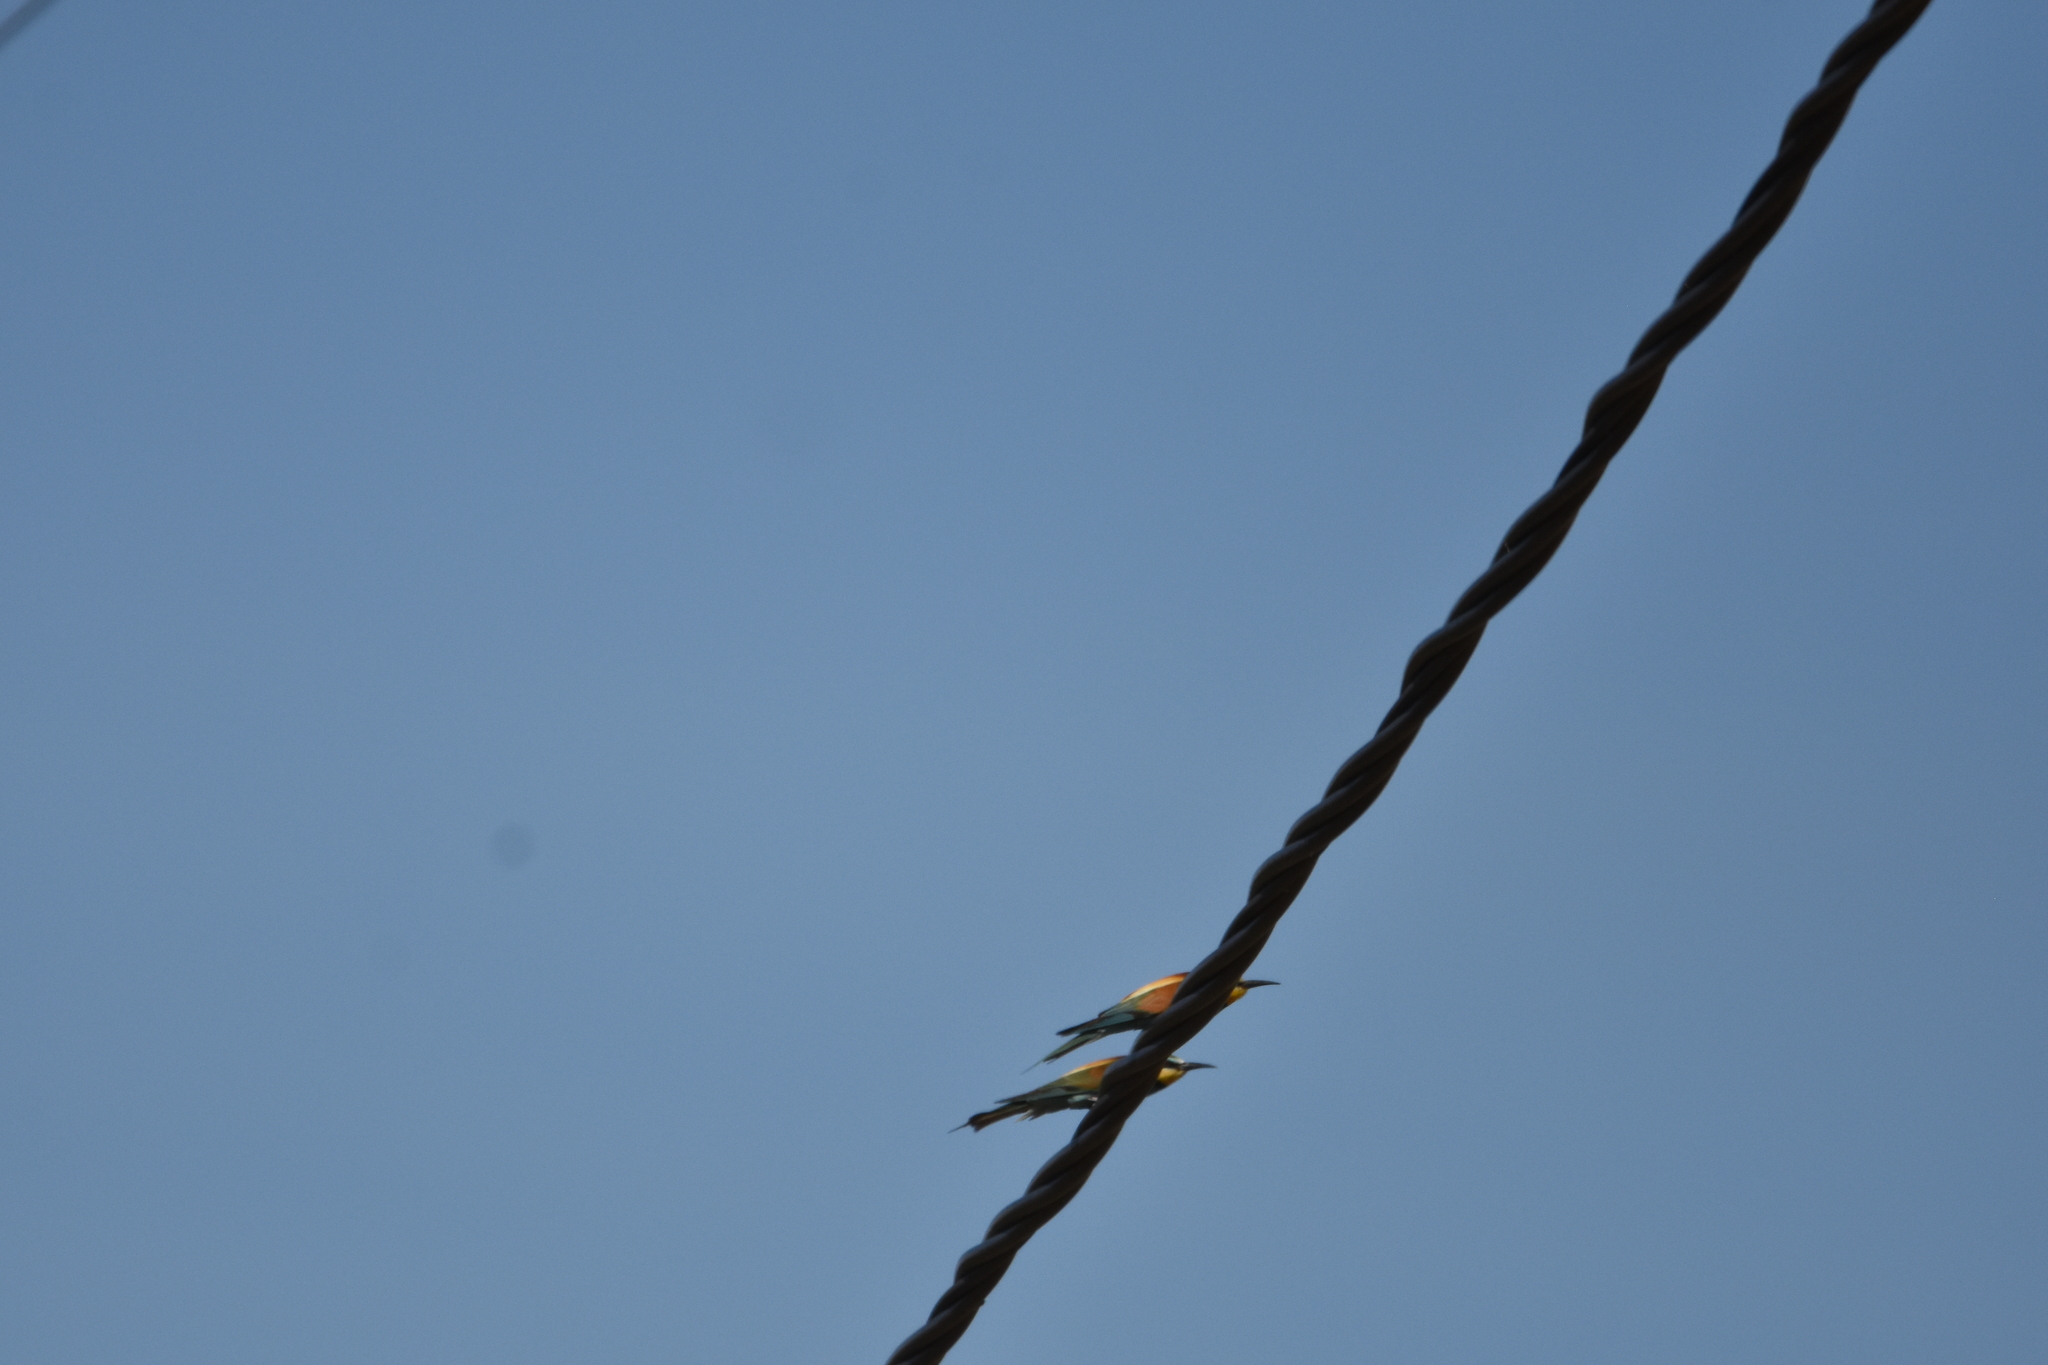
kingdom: Animalia
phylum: Chordata
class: Aves
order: Coraciiformes
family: Meropidae
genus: Merops
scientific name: Merops apiaster
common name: European bee-eater
